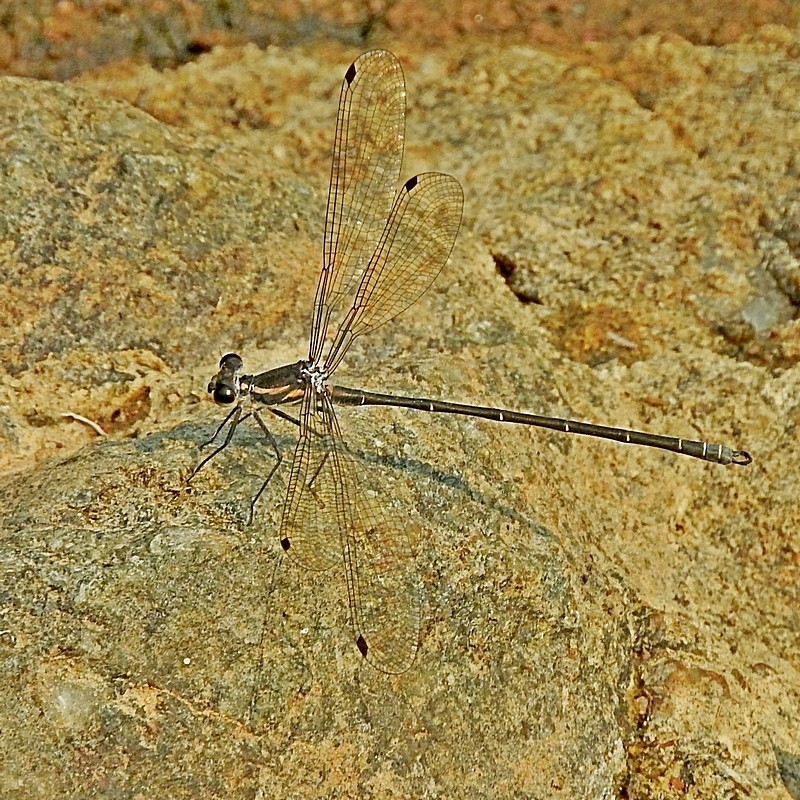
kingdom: Animalia
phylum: Arthropoda
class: Insecta
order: Odonata
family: Argiolestidae
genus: Austroargiolestes
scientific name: Austroargiolestes icteromelas
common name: Common flatwing
